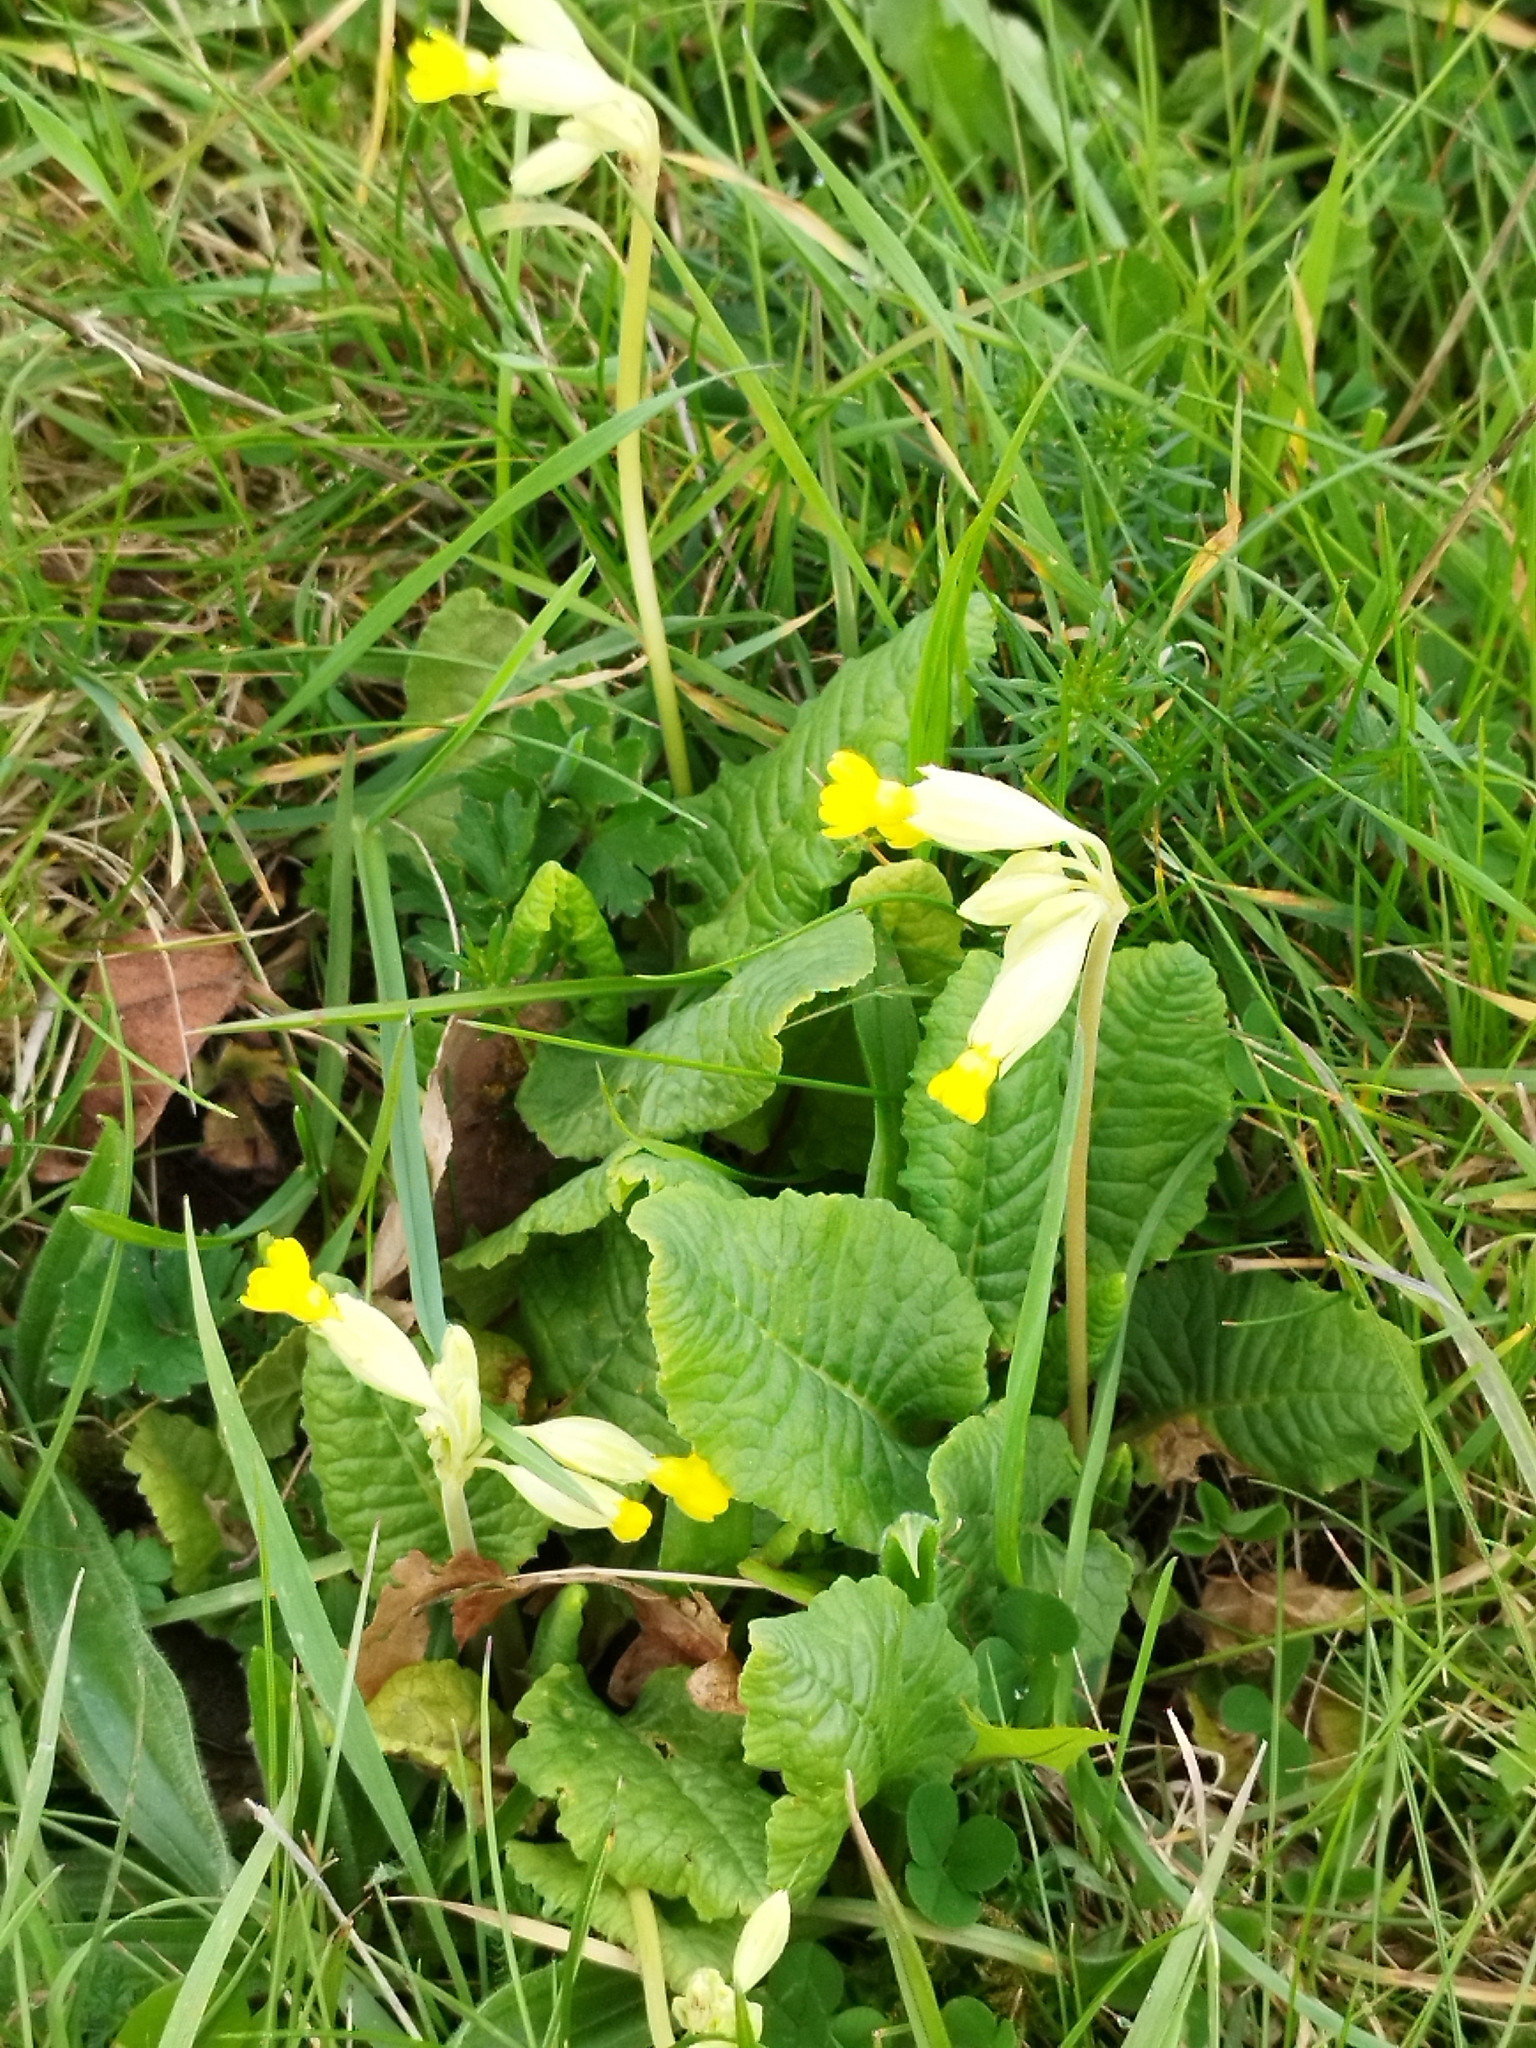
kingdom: Plantae
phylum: Tracheophyta
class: Magnoliopsida
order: Ericales
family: Primulaceae
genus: Primula
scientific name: Primula veris
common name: Cowslip
